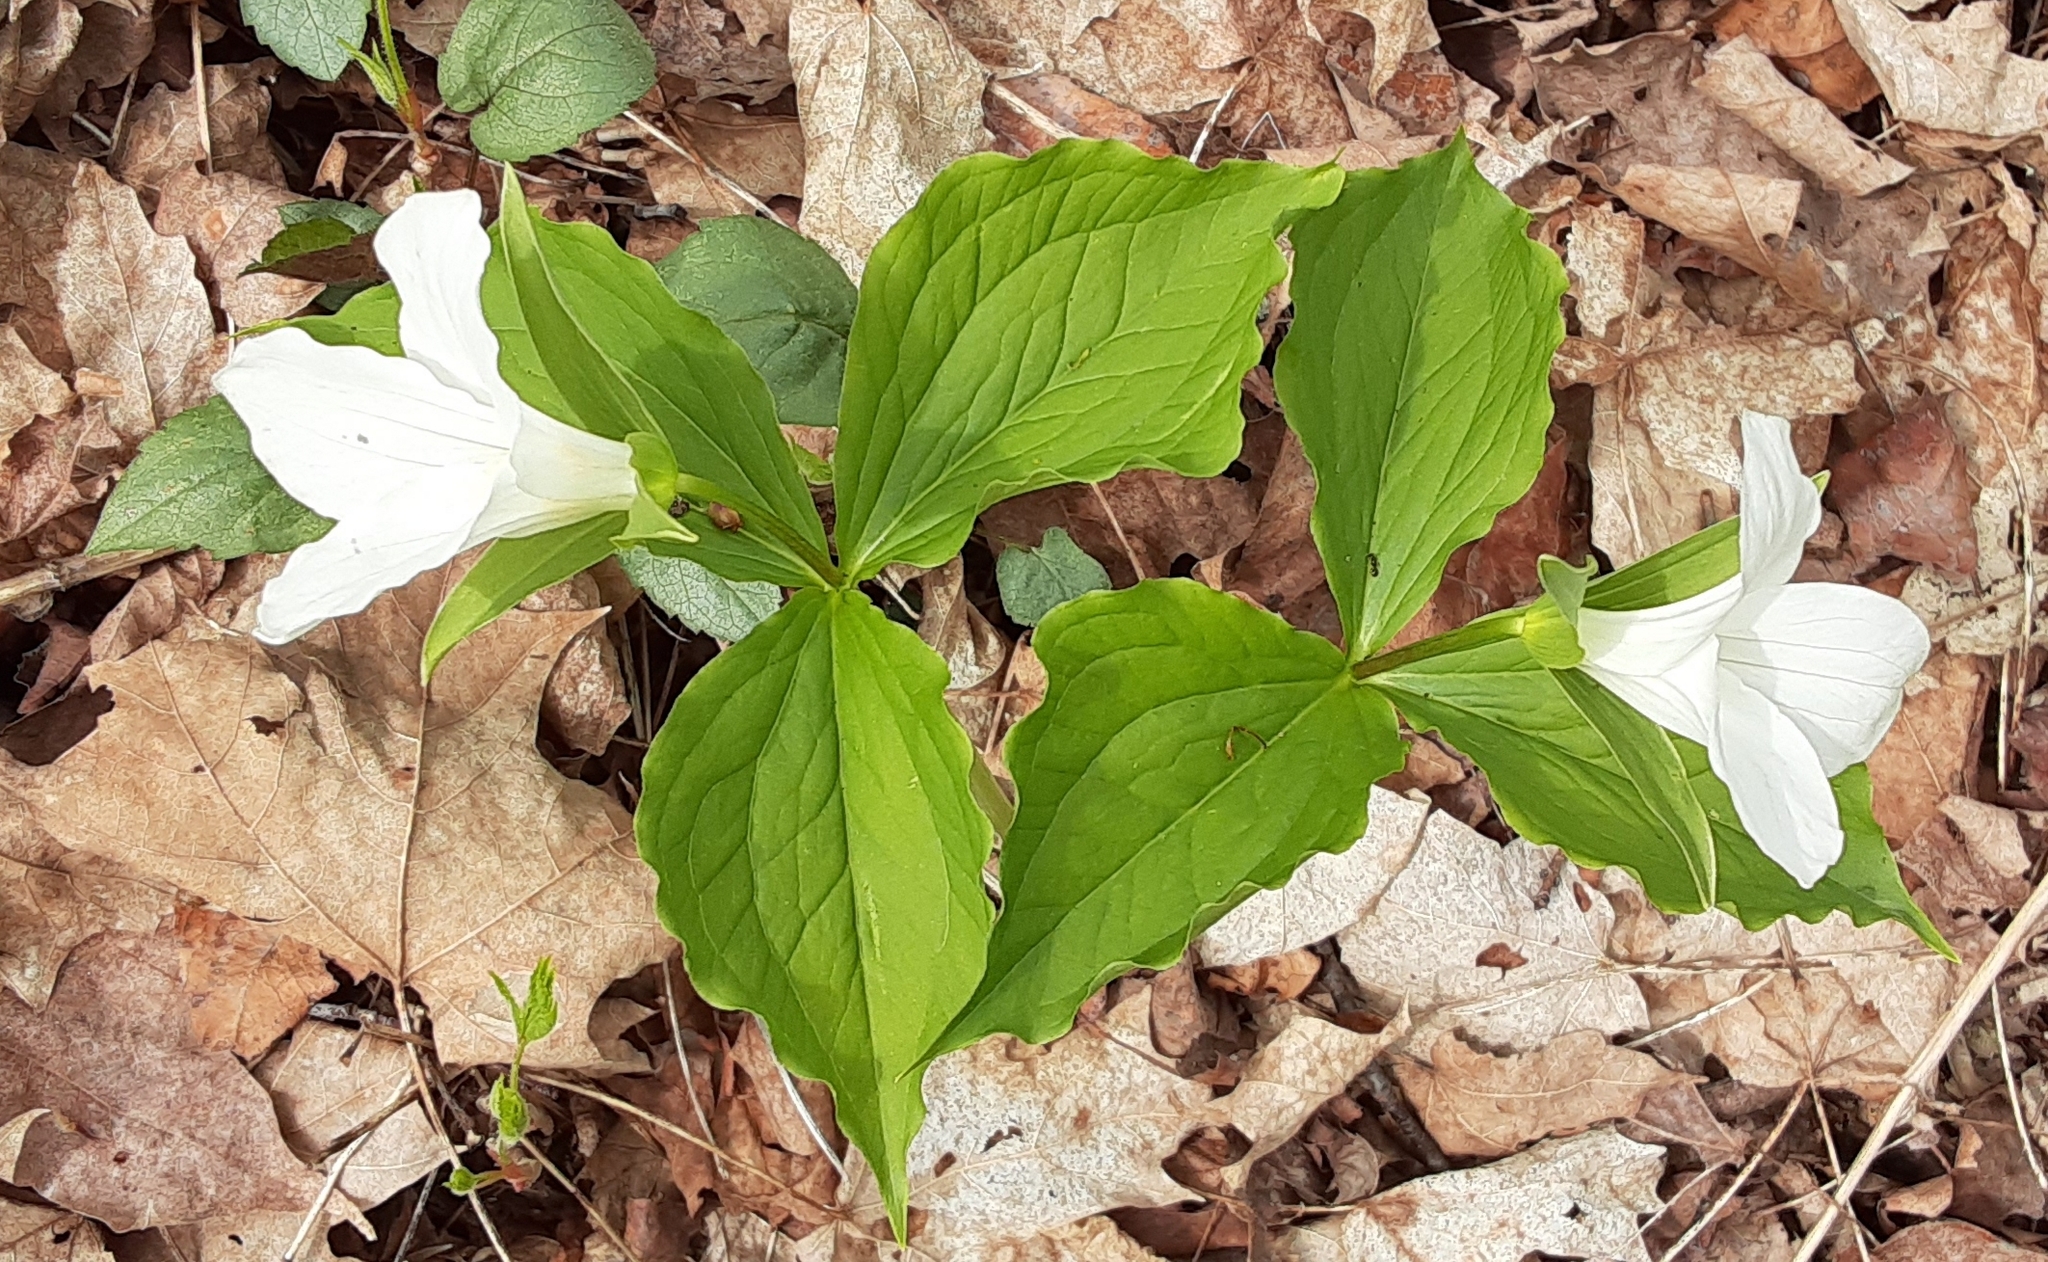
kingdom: Plantae
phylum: Tracheophyta
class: Liliopsida
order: Liliales
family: Melanthiaceae
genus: Trillium
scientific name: Trillium grandiflorum
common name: Great white trillium
